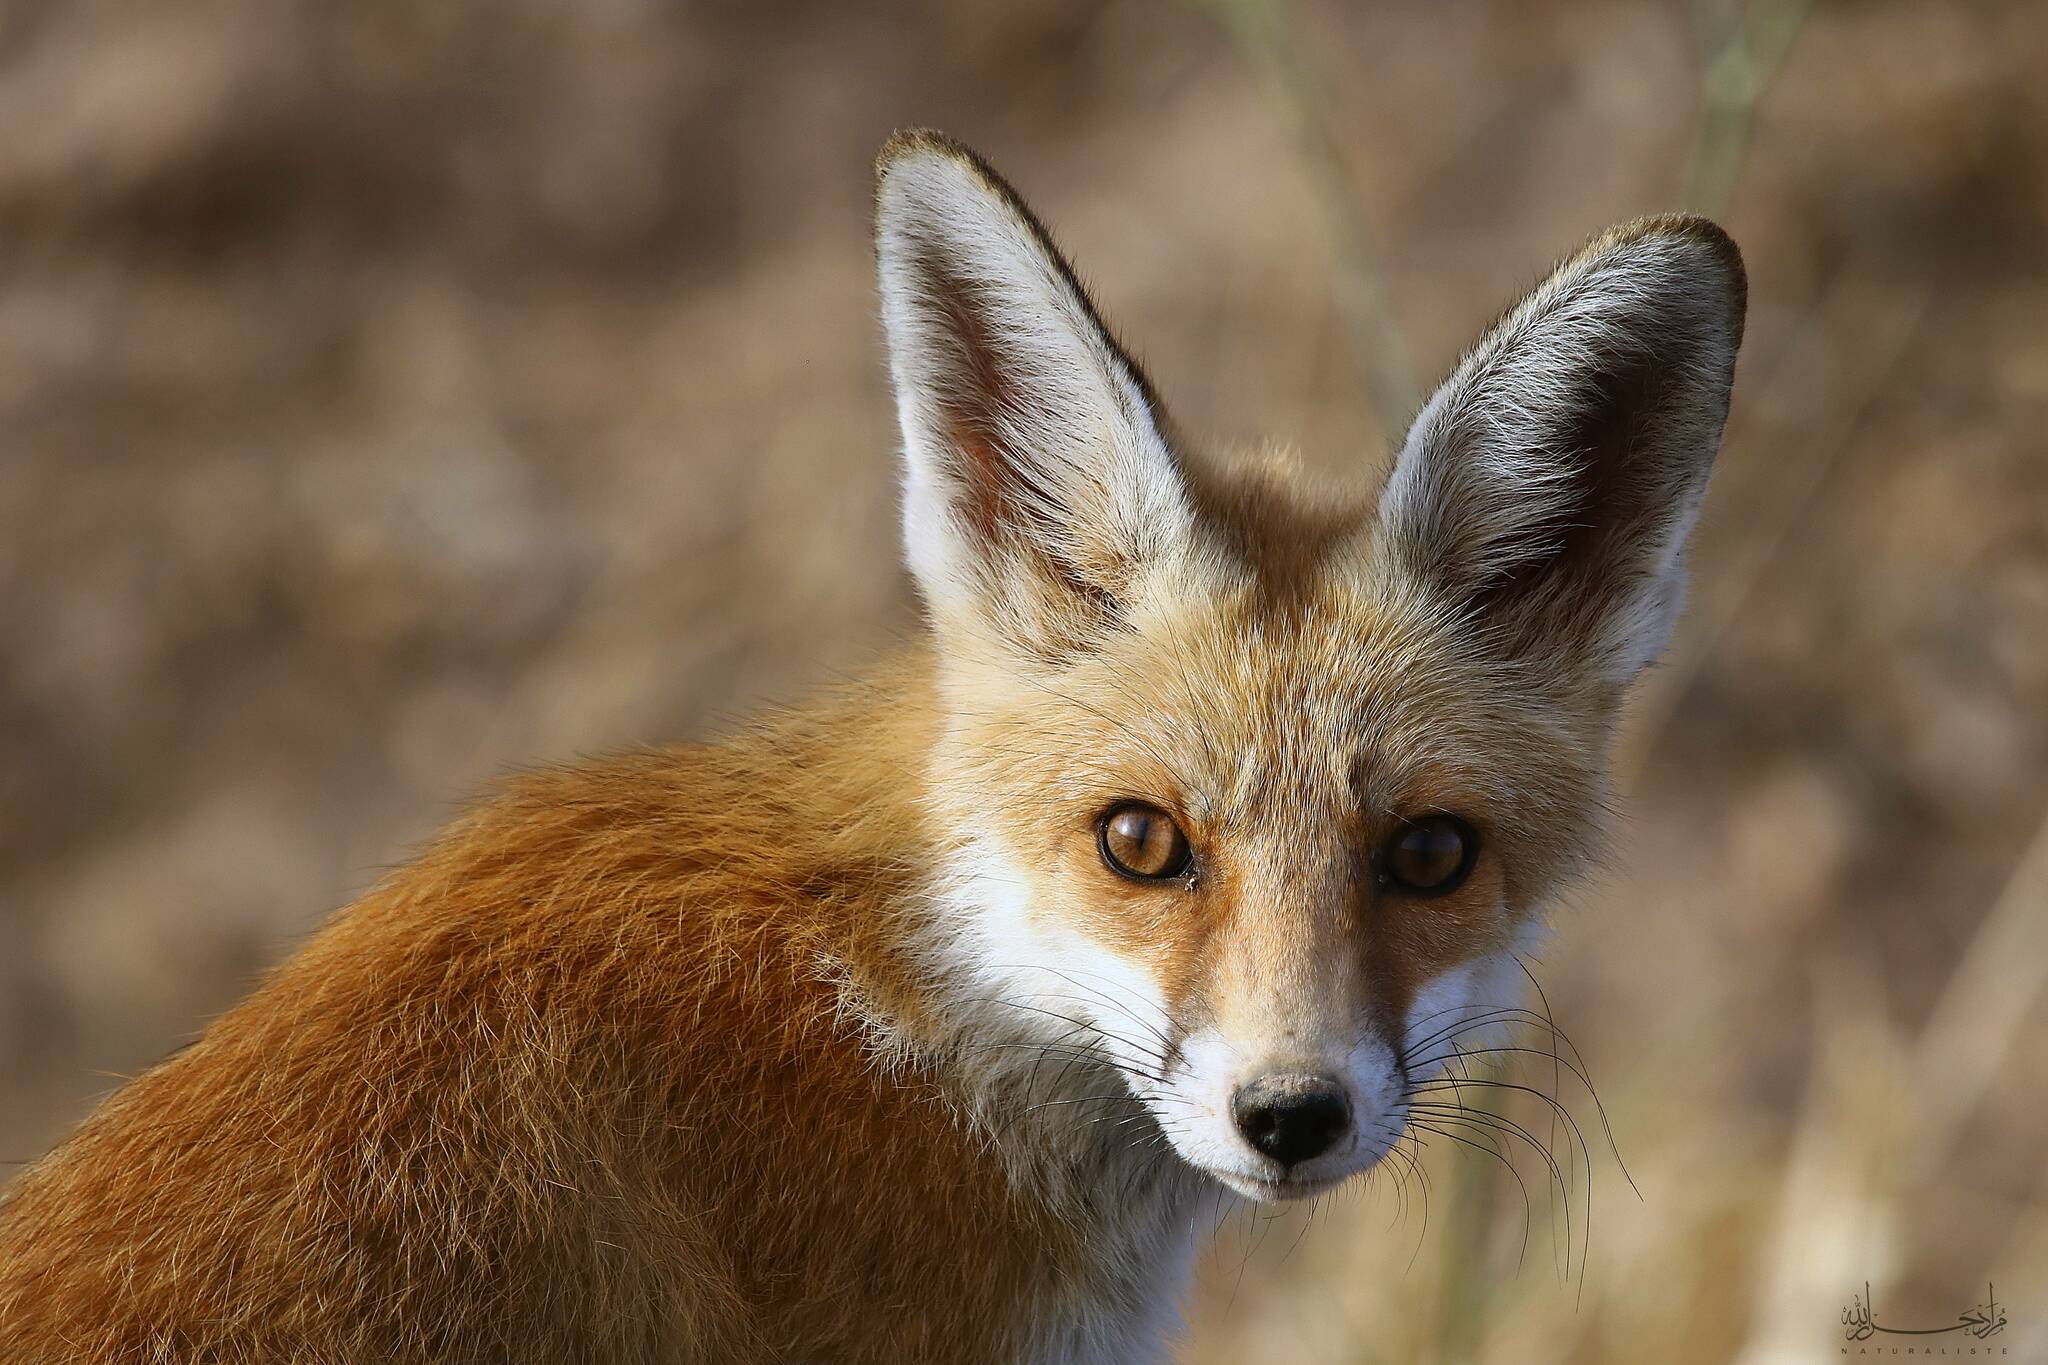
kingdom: Animalia
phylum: Chordata
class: Mammalia
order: Carnivora
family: Canidae
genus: Vulpes
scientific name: Vulpes vulpes
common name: Red fox
